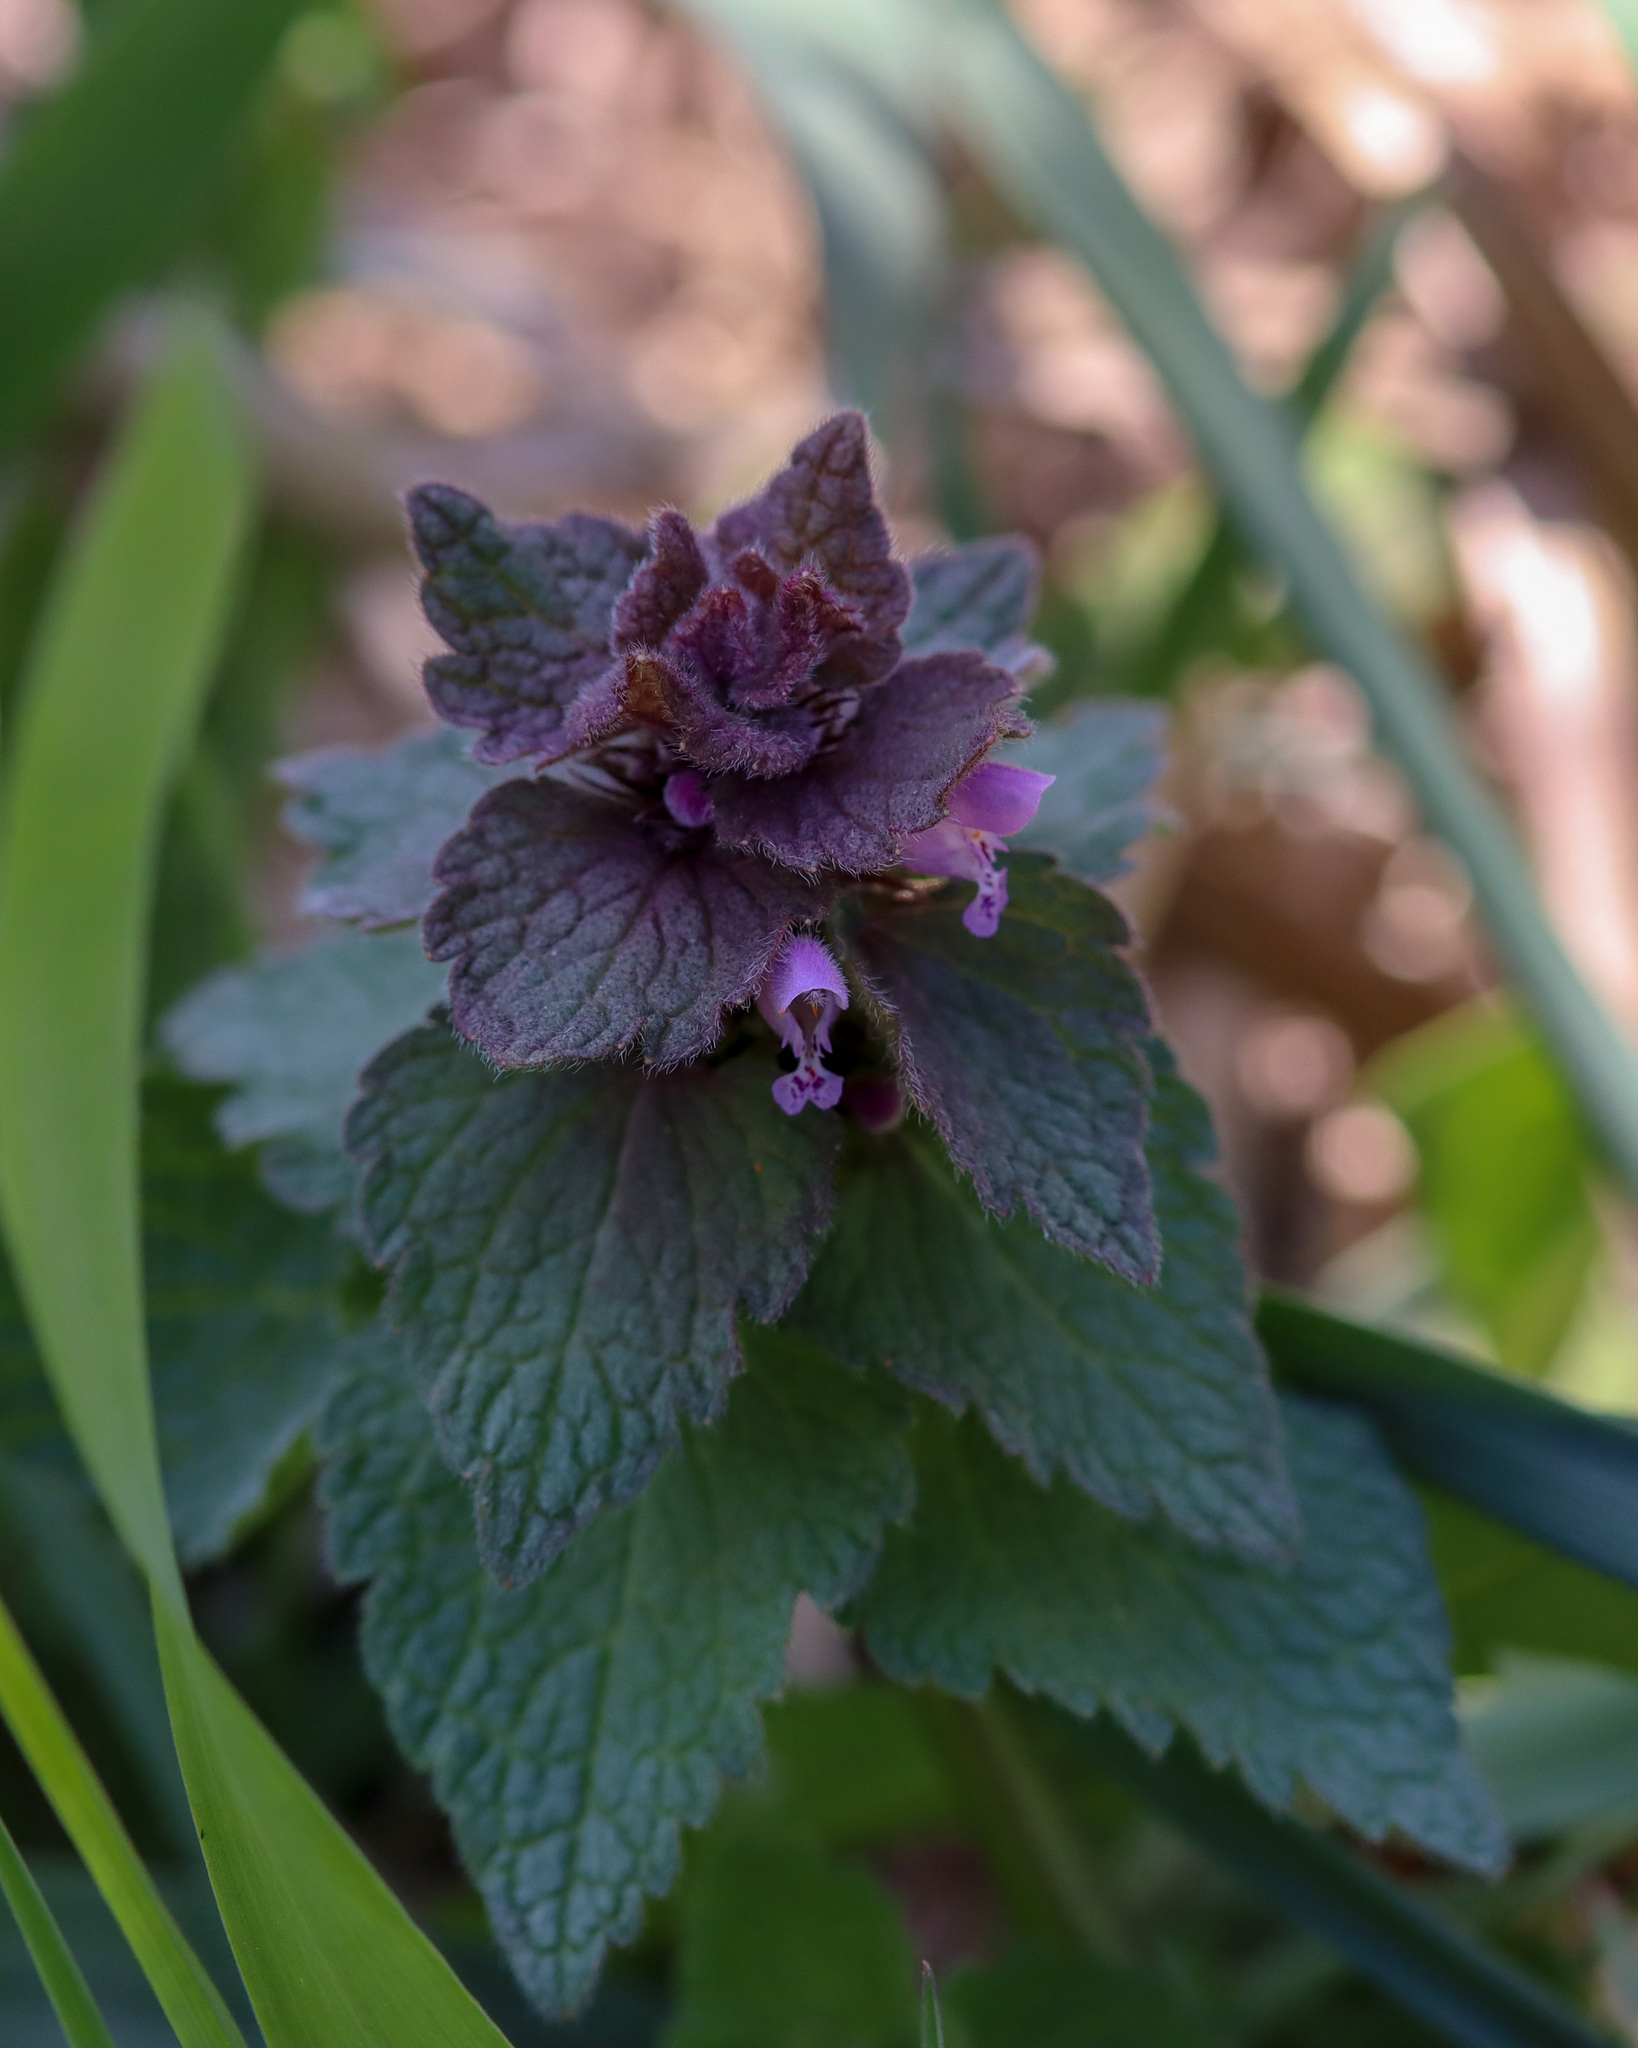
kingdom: Plantae
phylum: Tracheophyta
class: Magnoliopsida
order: Lamiales
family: Lamiaceae
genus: Lamium
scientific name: Lamium purpureum
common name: Red dead-nettle
